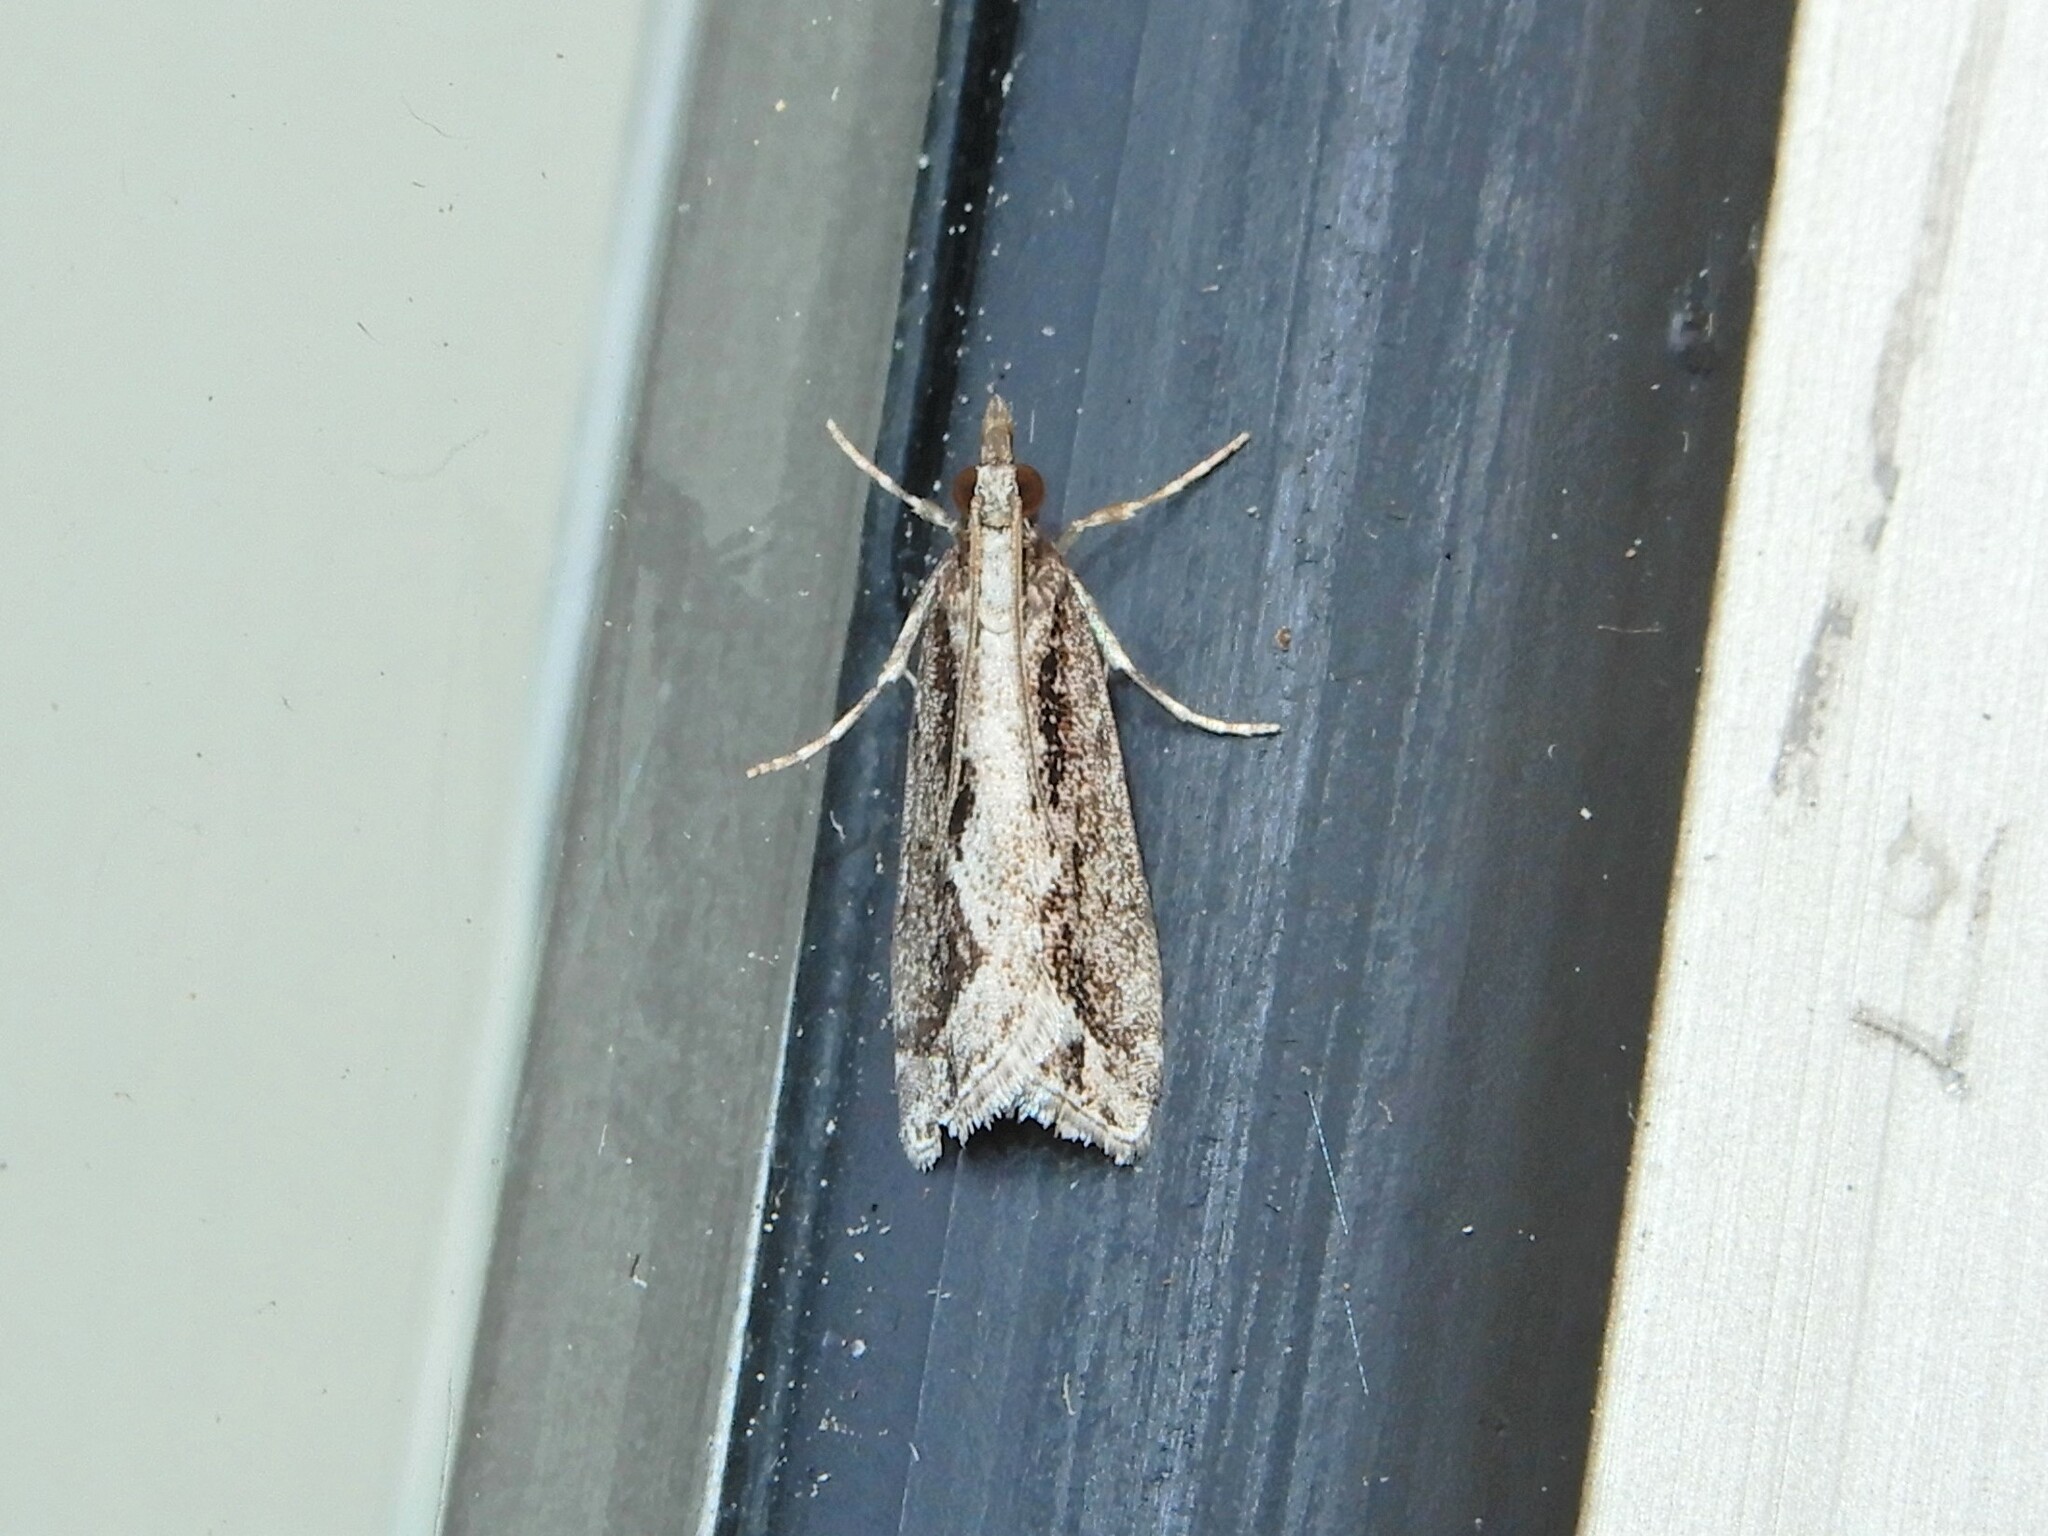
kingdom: Animalia
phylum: Arthropoda
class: Insecta
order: Lepidoptera
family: Crambidae
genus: Eudonia
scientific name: Eudonia steropaea
